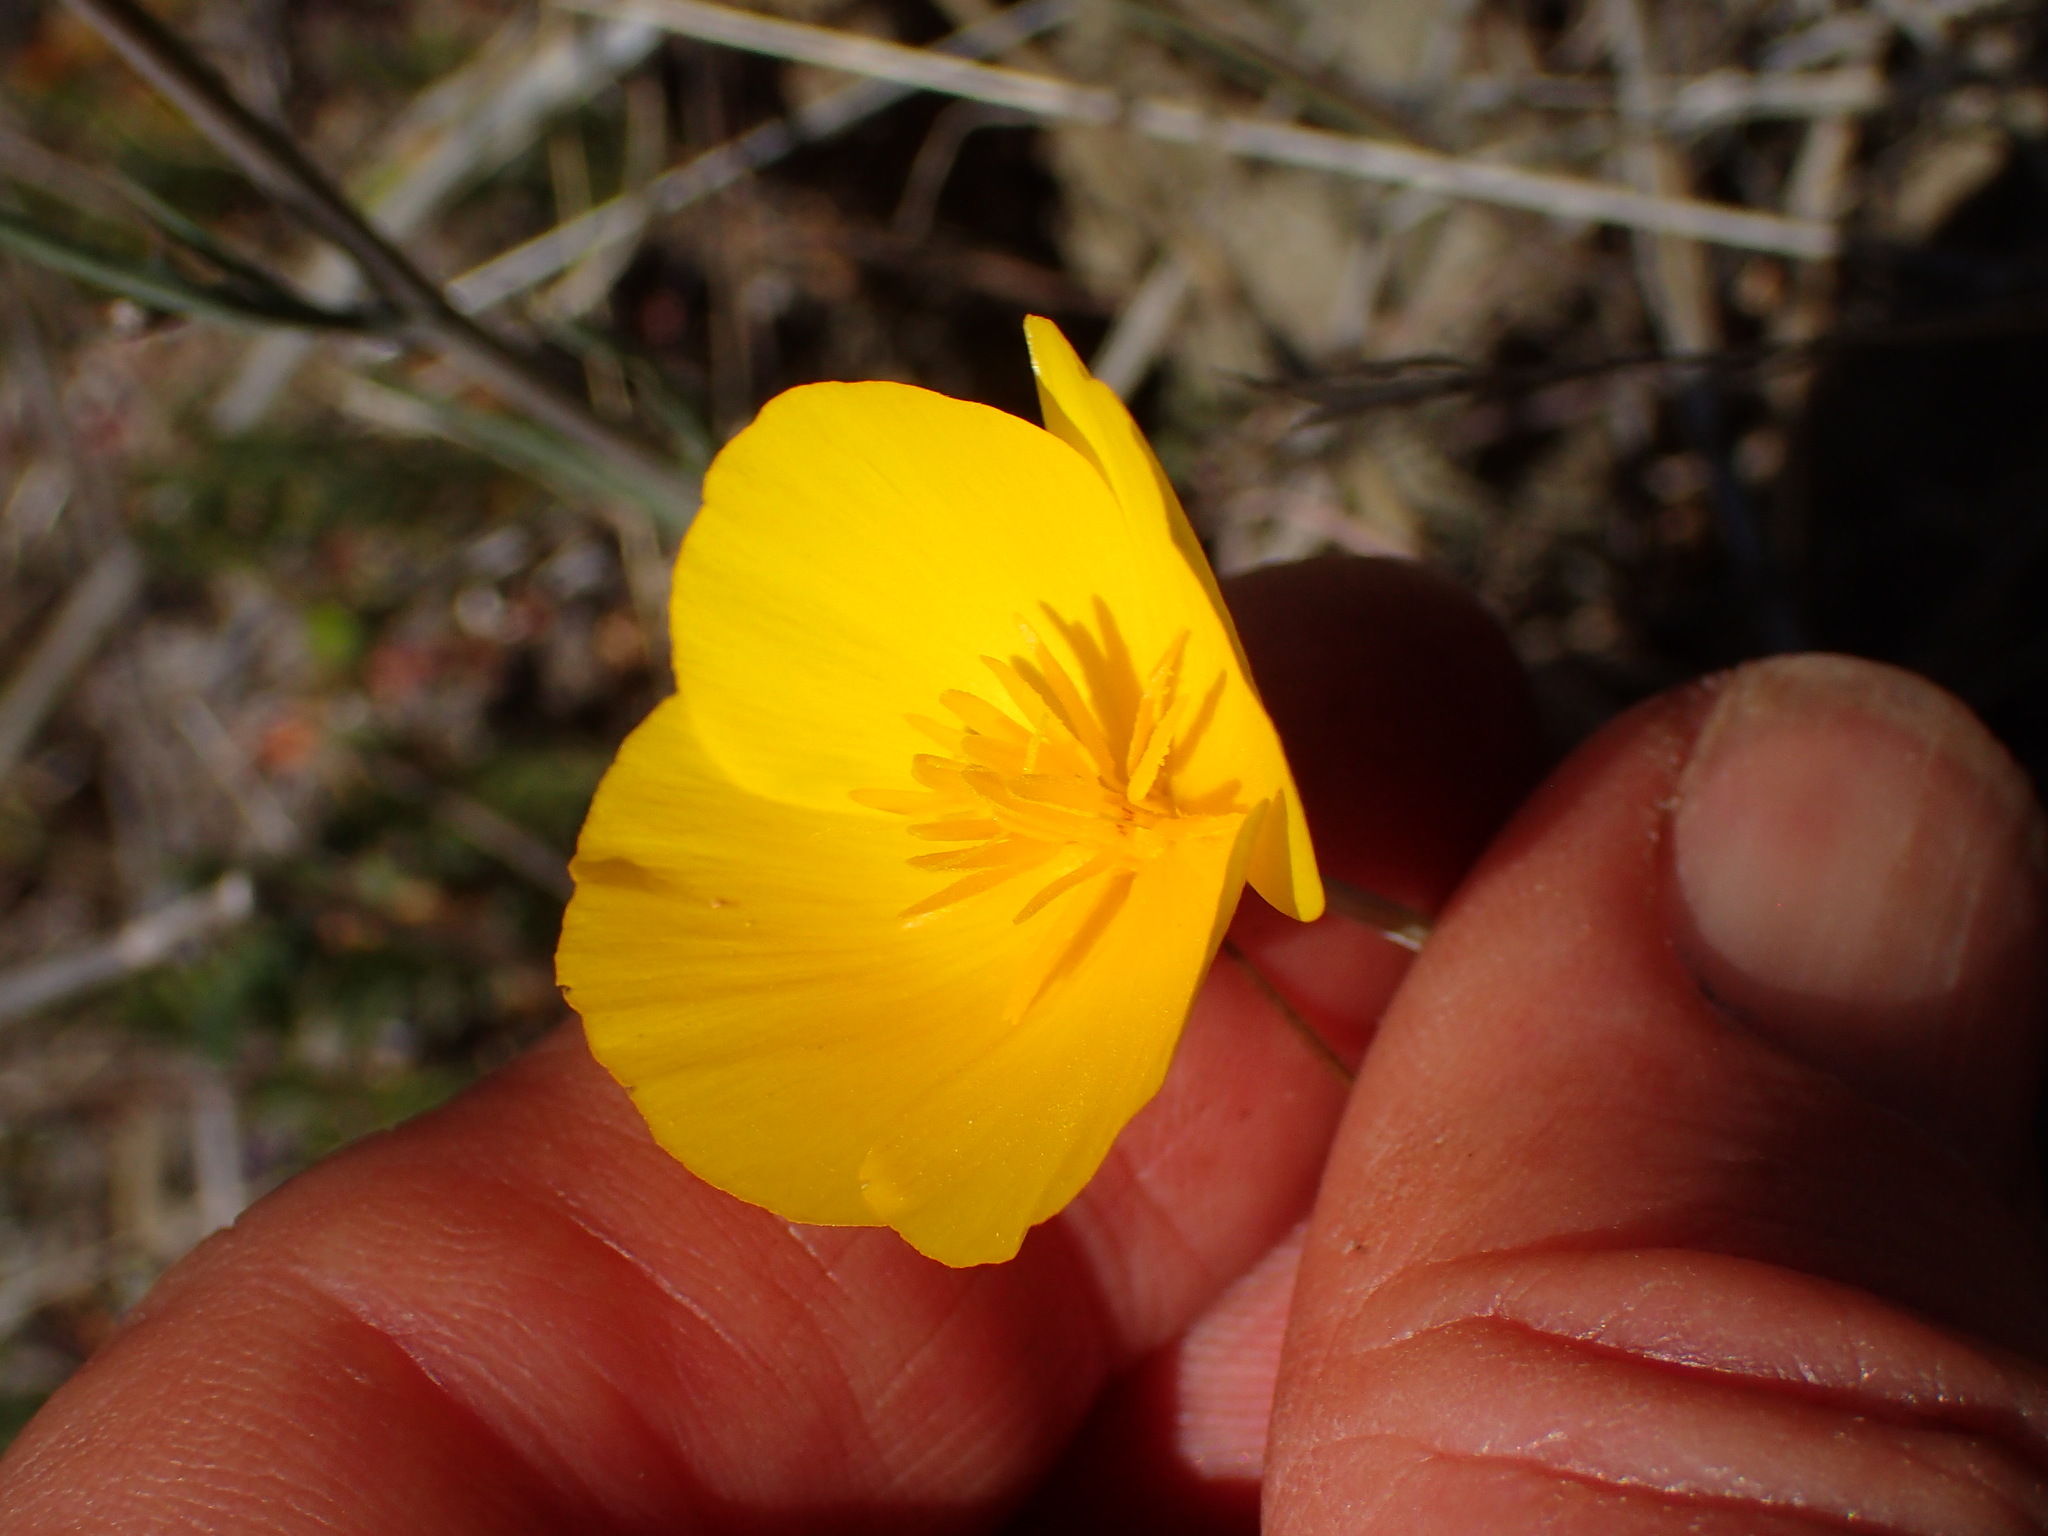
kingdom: Plantae
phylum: Tracheophyta
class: Magnoliopsida
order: Ranunculales
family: Papaveraceae
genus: Eschscholzia
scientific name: Eschscholzia caespitosa
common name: Tufted california-poppy
